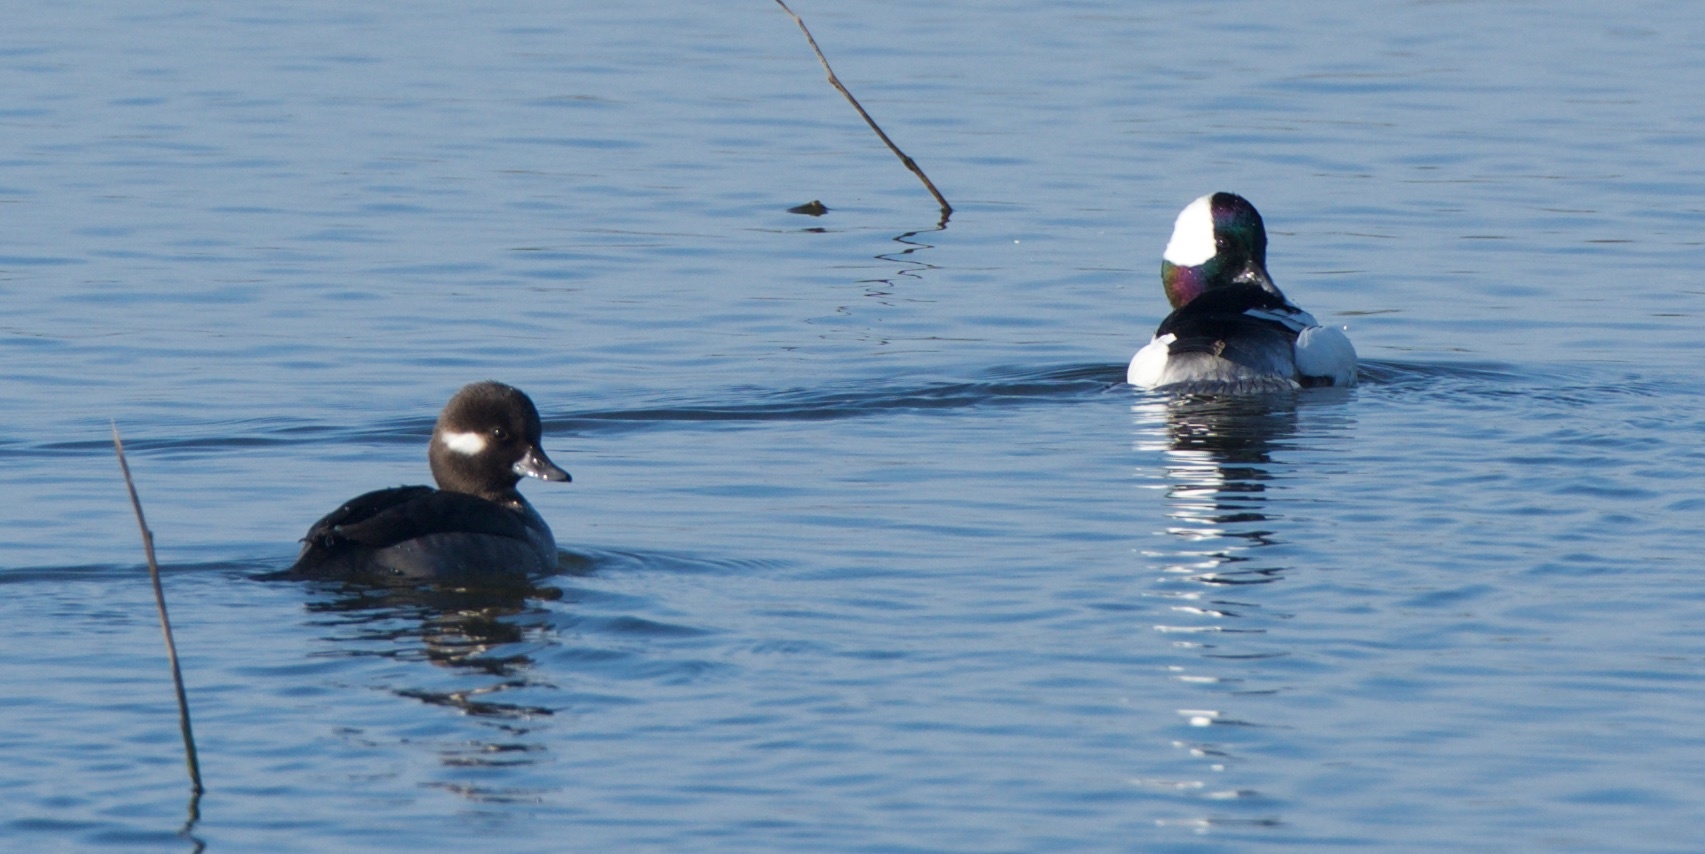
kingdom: Animalia
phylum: Chordata
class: Aves
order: Anseriformes
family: Anatidae
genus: Bucephala
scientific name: Bucephala albeola
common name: Bufflehead
